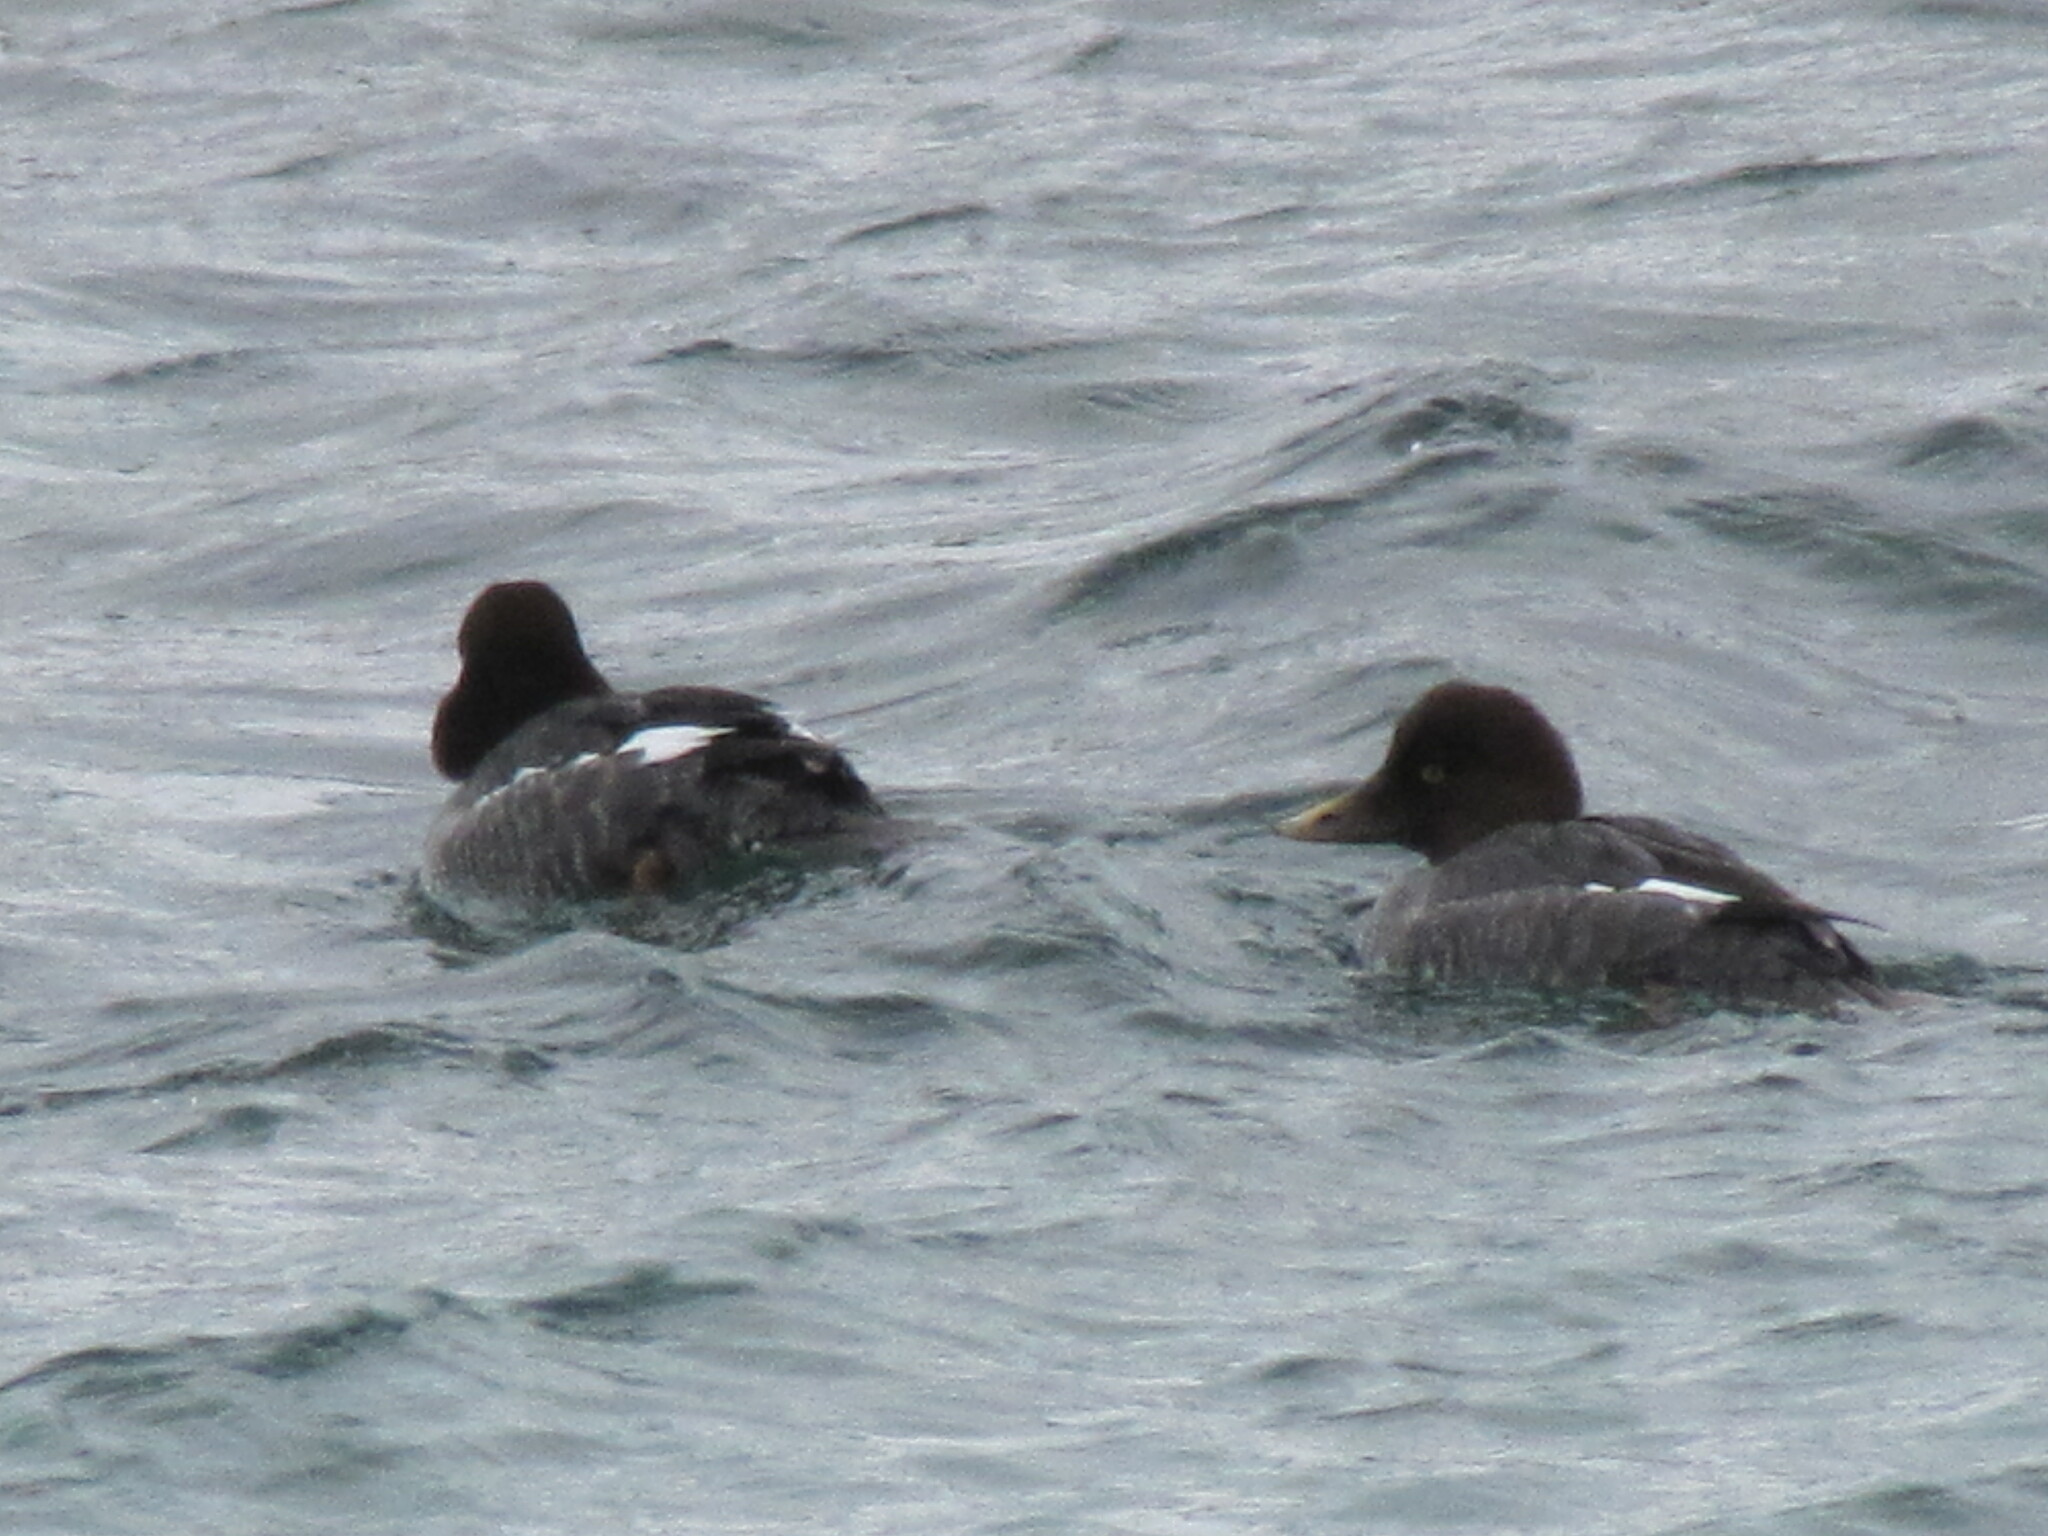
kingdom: Animalia
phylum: Chordata
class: Aves
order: Anseriformes
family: Anatidae
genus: Bucephala
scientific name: Bucephala clangula
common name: Common goldeneye
